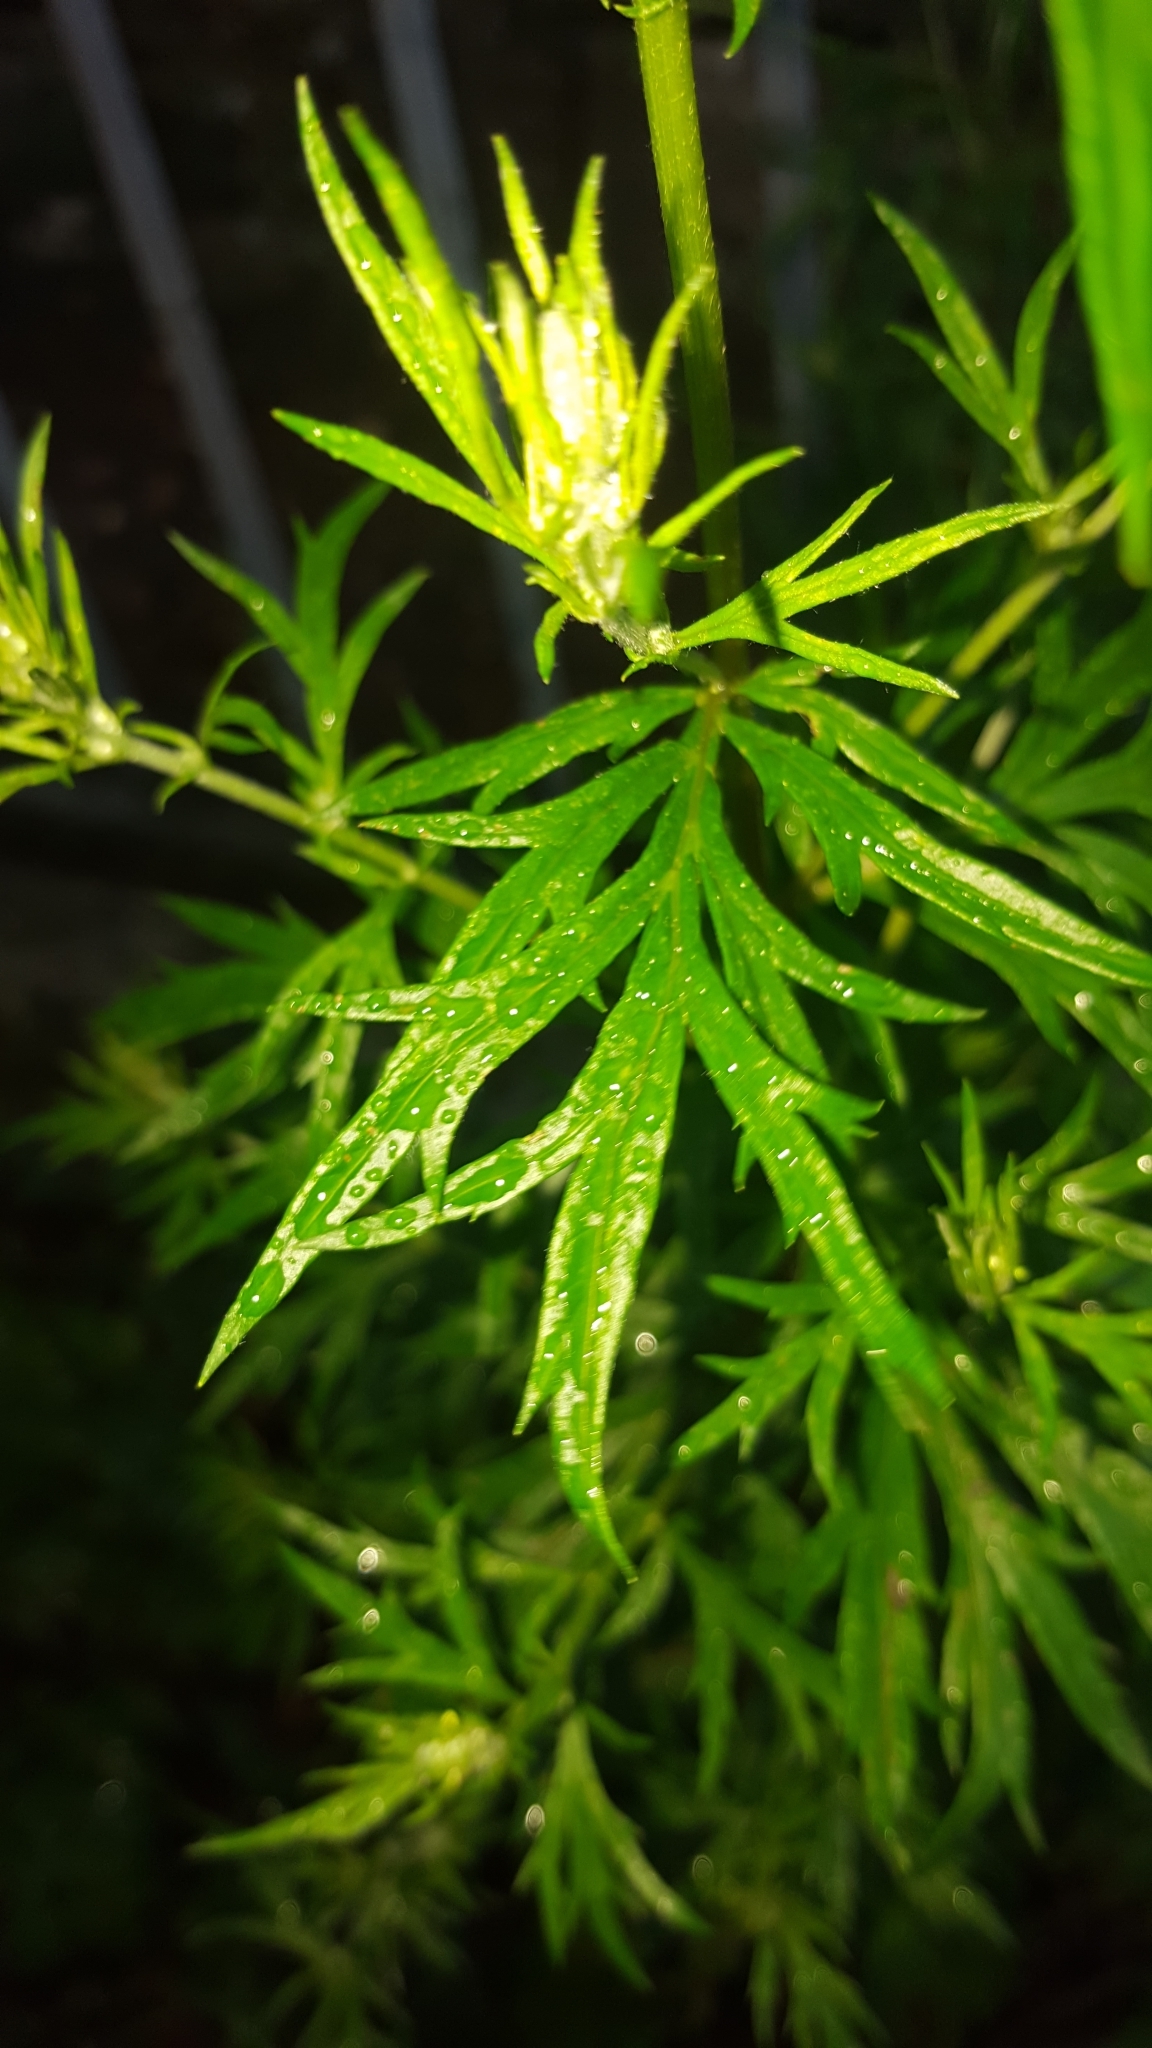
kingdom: Plantae
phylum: Tracheophyta
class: Magnoliopsida
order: Asterales
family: Asteraceae
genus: Artemisia
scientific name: Artemisia vulgaris
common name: Mugwort
